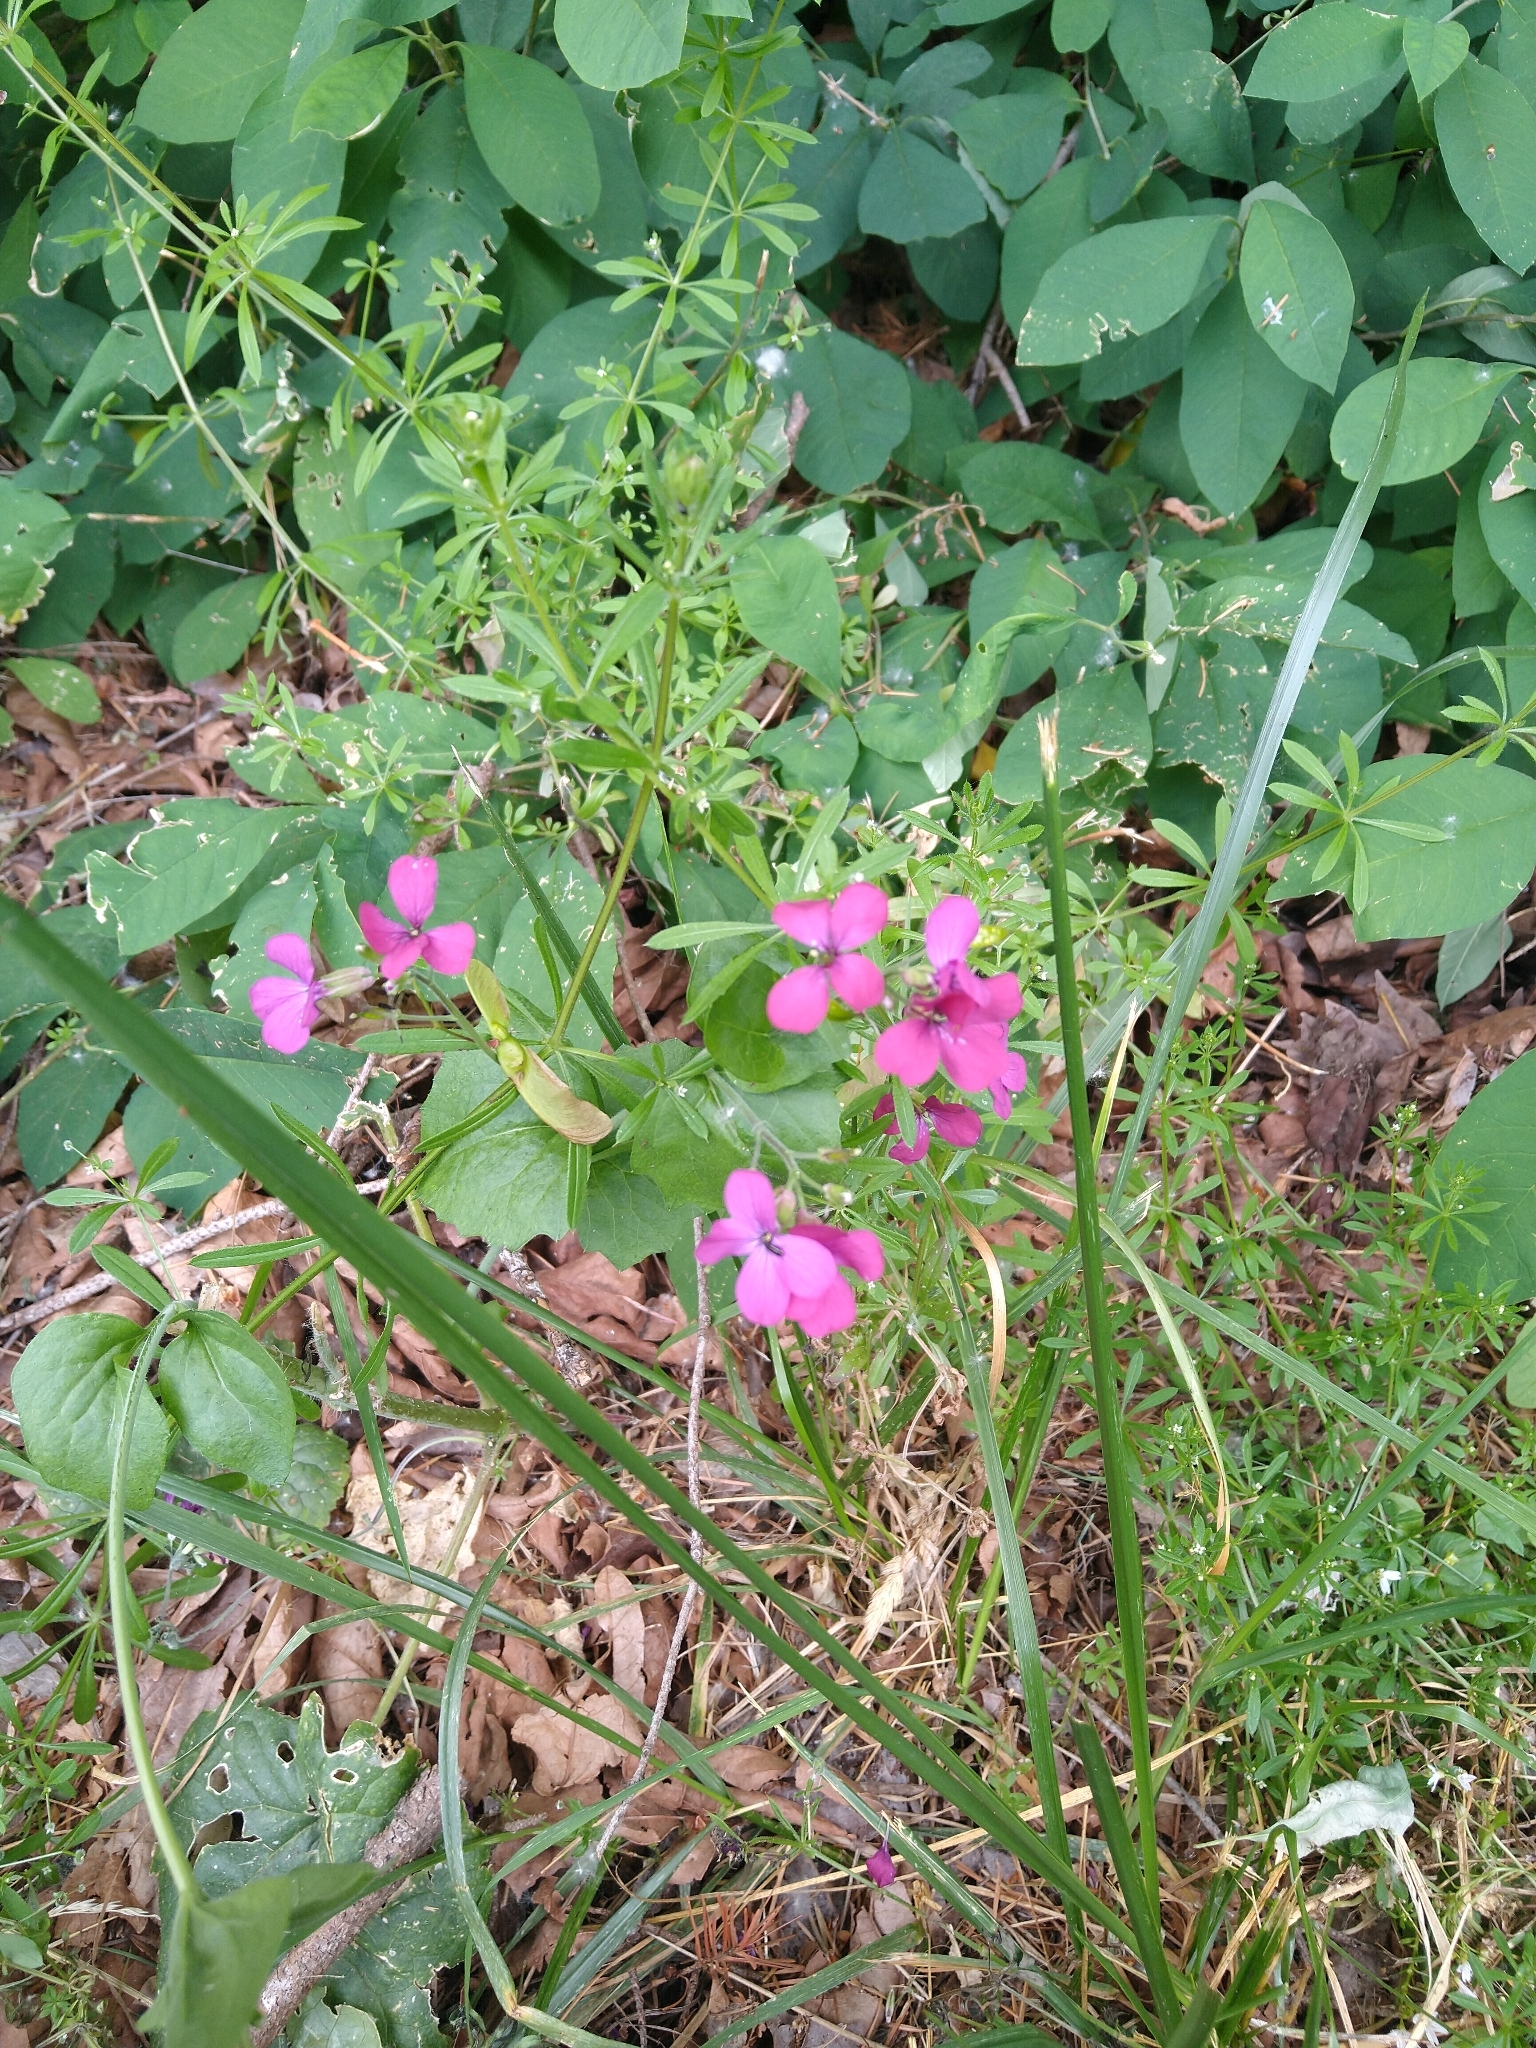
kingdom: Plantae
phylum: Tracheophyta
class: Magnoliopsida
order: Brassicales
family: Brassicaceae
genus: Lunaria
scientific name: Lunaria annua
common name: Honesty
